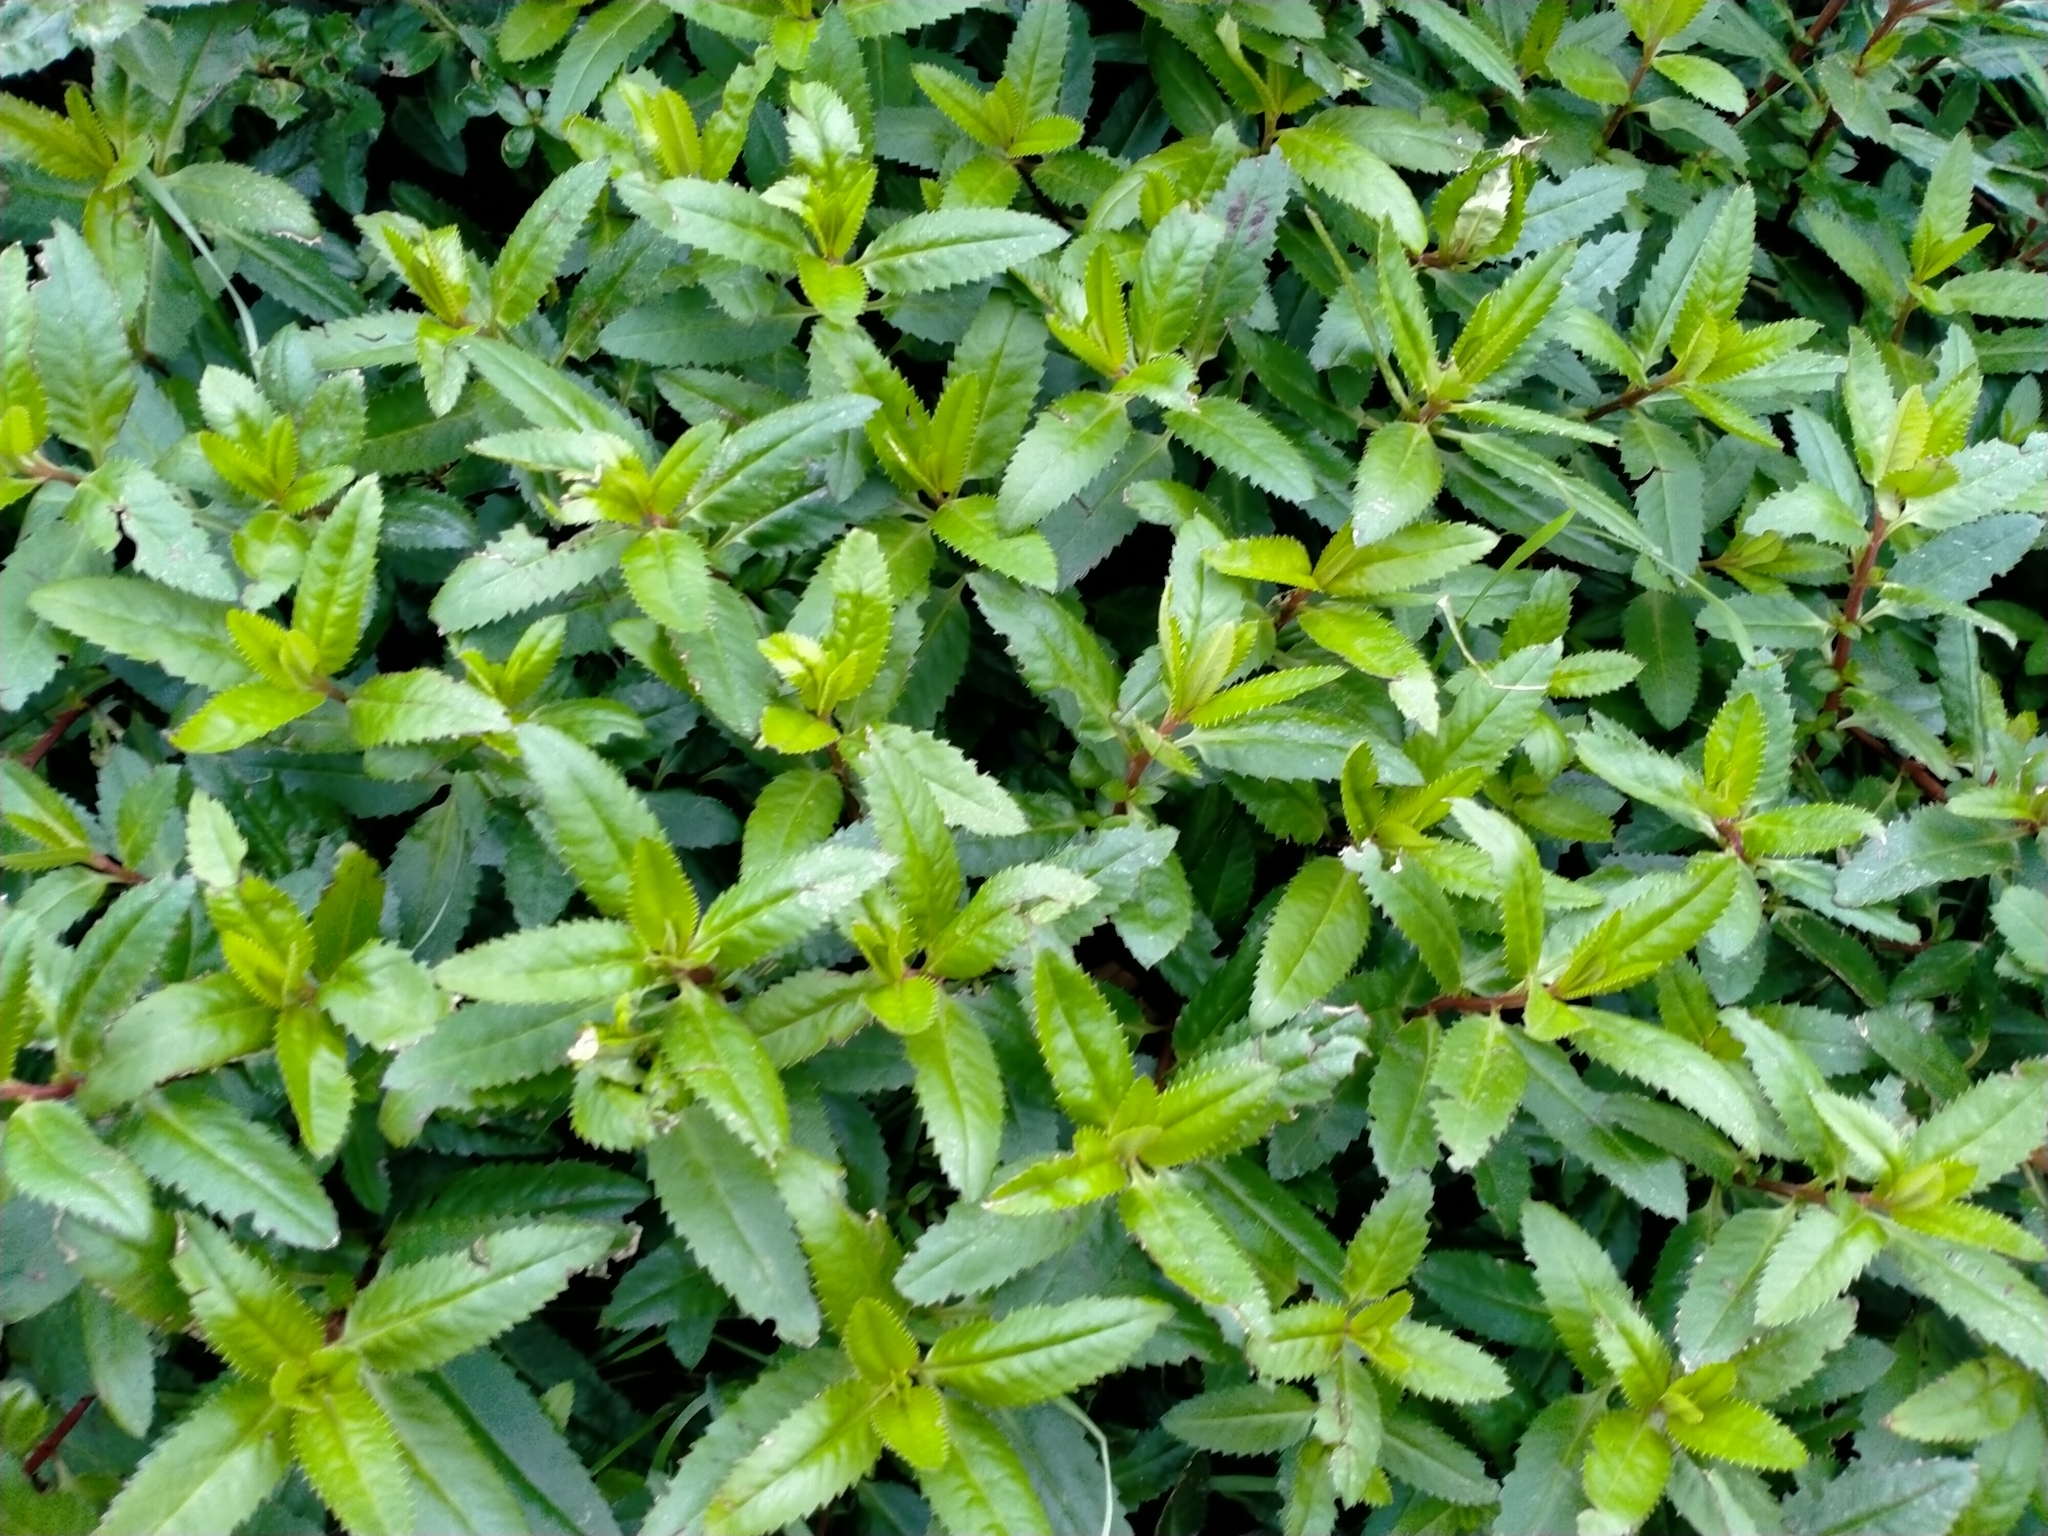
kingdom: Plantae
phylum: Tracheophyta
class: Magnoliopsida
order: Saxifragales
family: Haloragaceae
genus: Haloragis
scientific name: Haloragis erecta
